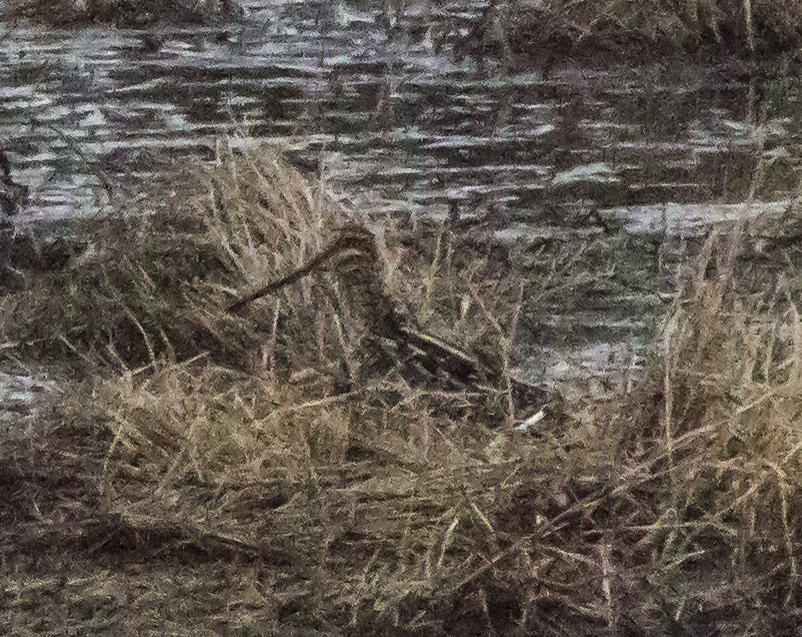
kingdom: Animalia
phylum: Chordata
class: Aves
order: Charadriiformes
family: Scolopacidae
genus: Gallinago
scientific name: Gallinago delicata
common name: Wilson's snipe
